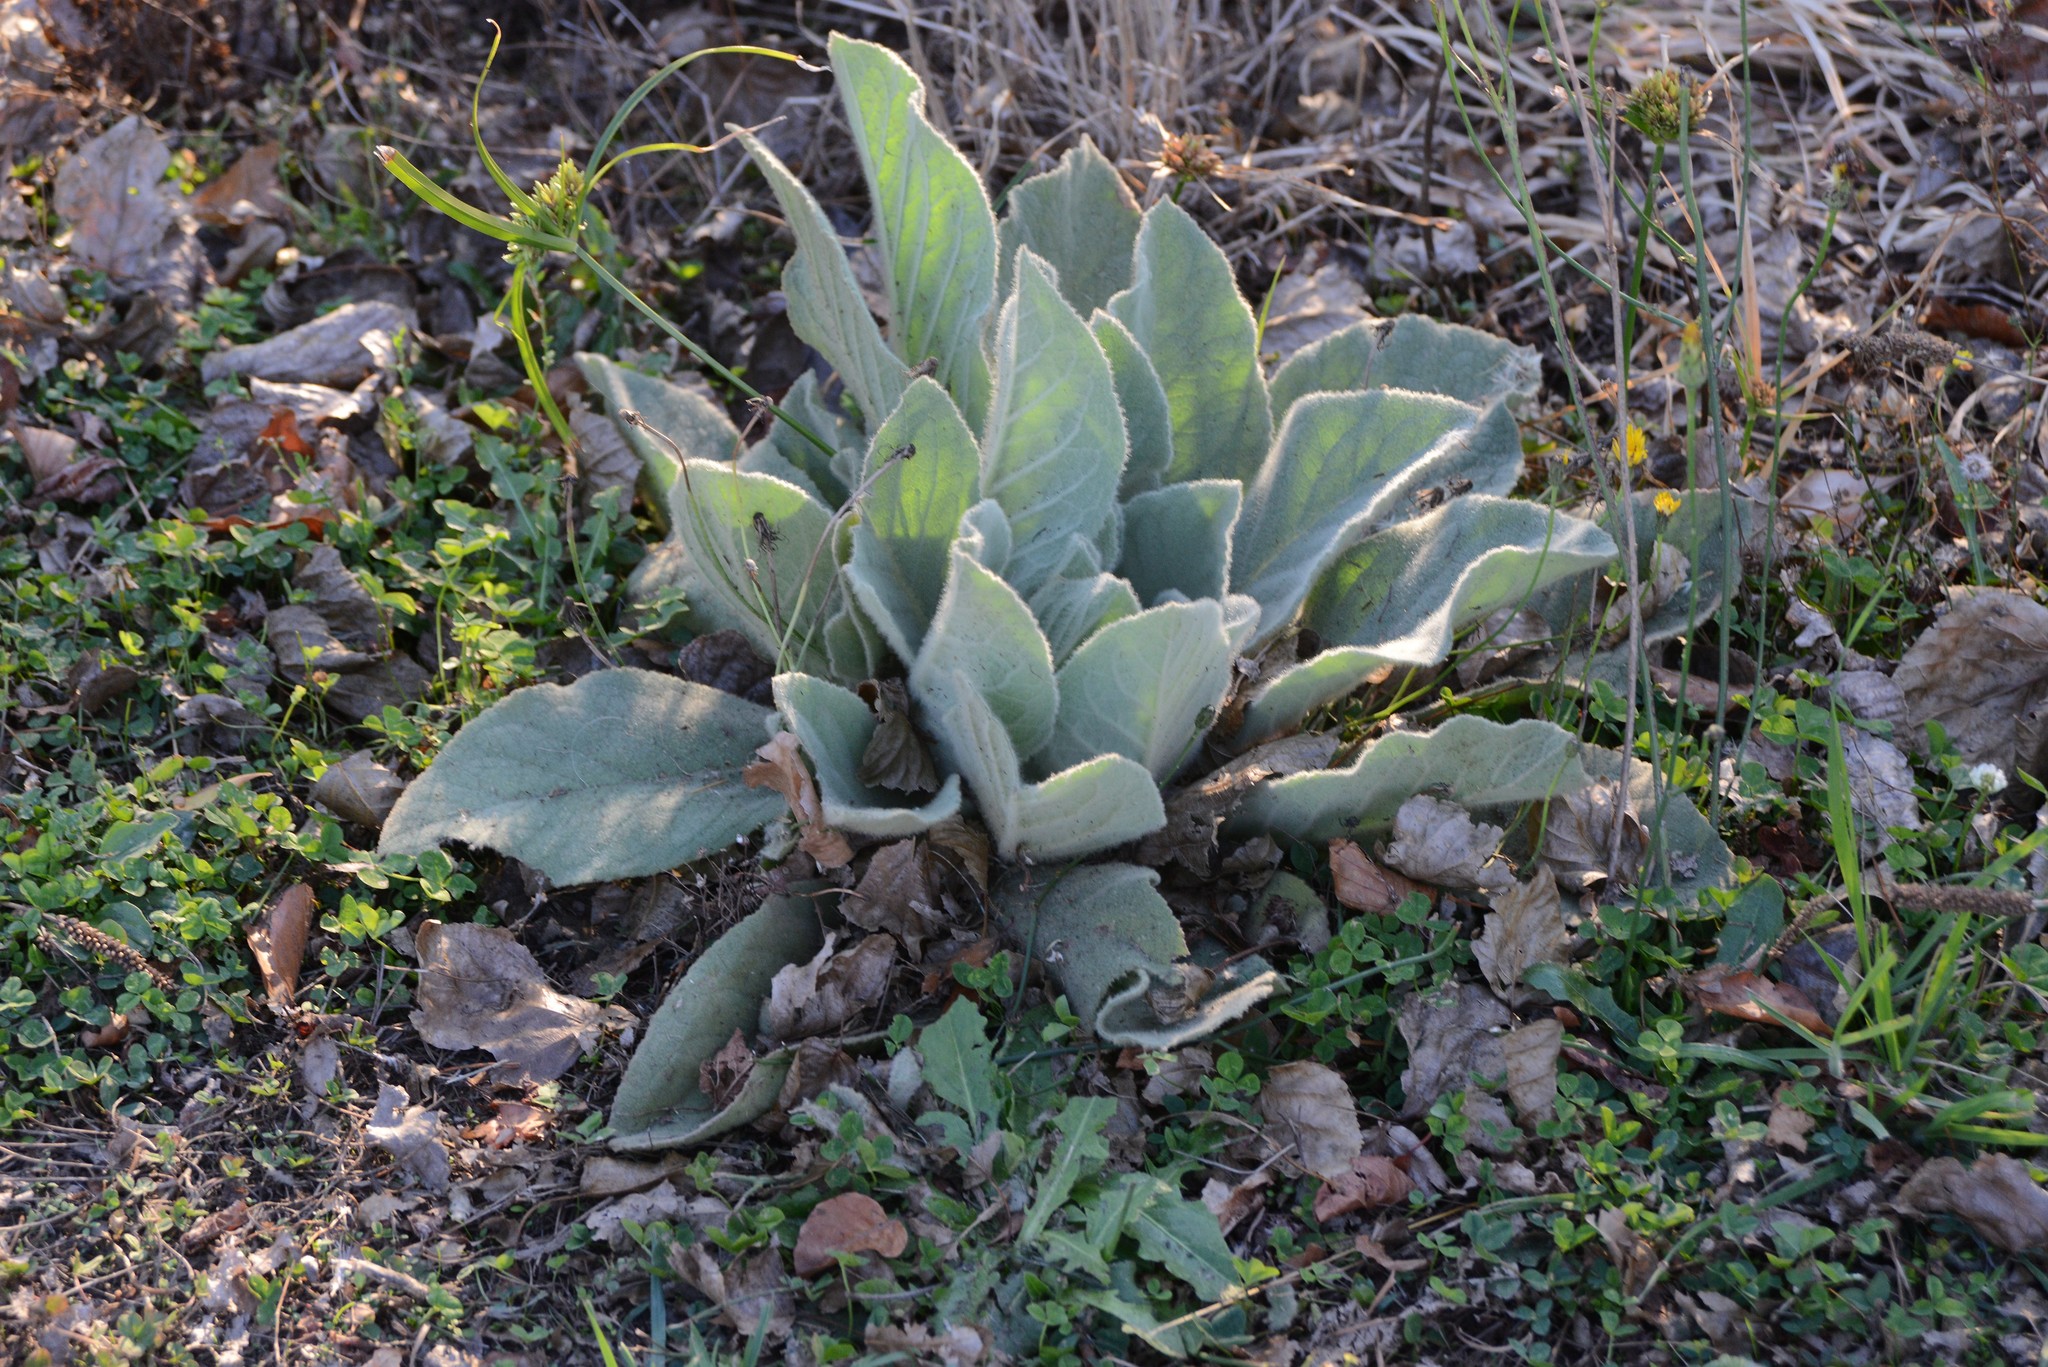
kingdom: Plantae
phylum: Tracheophyta
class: Magnoliopsida
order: Lamiales
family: Scrophulariaceae
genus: Verbascum
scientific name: Verbascum thapsus
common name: Common mullein
